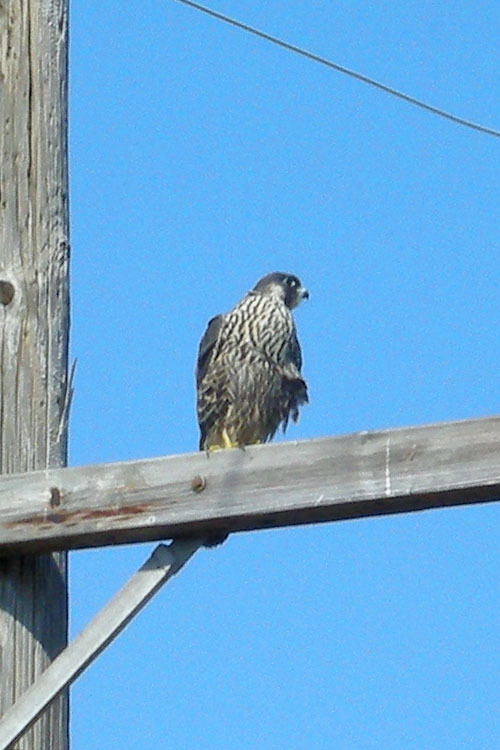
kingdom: Animalia
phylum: Chordata
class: Aves
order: Falconiformes
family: Falconidae
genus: Falco
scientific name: Falco peregrinus
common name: Peregrine falcon
